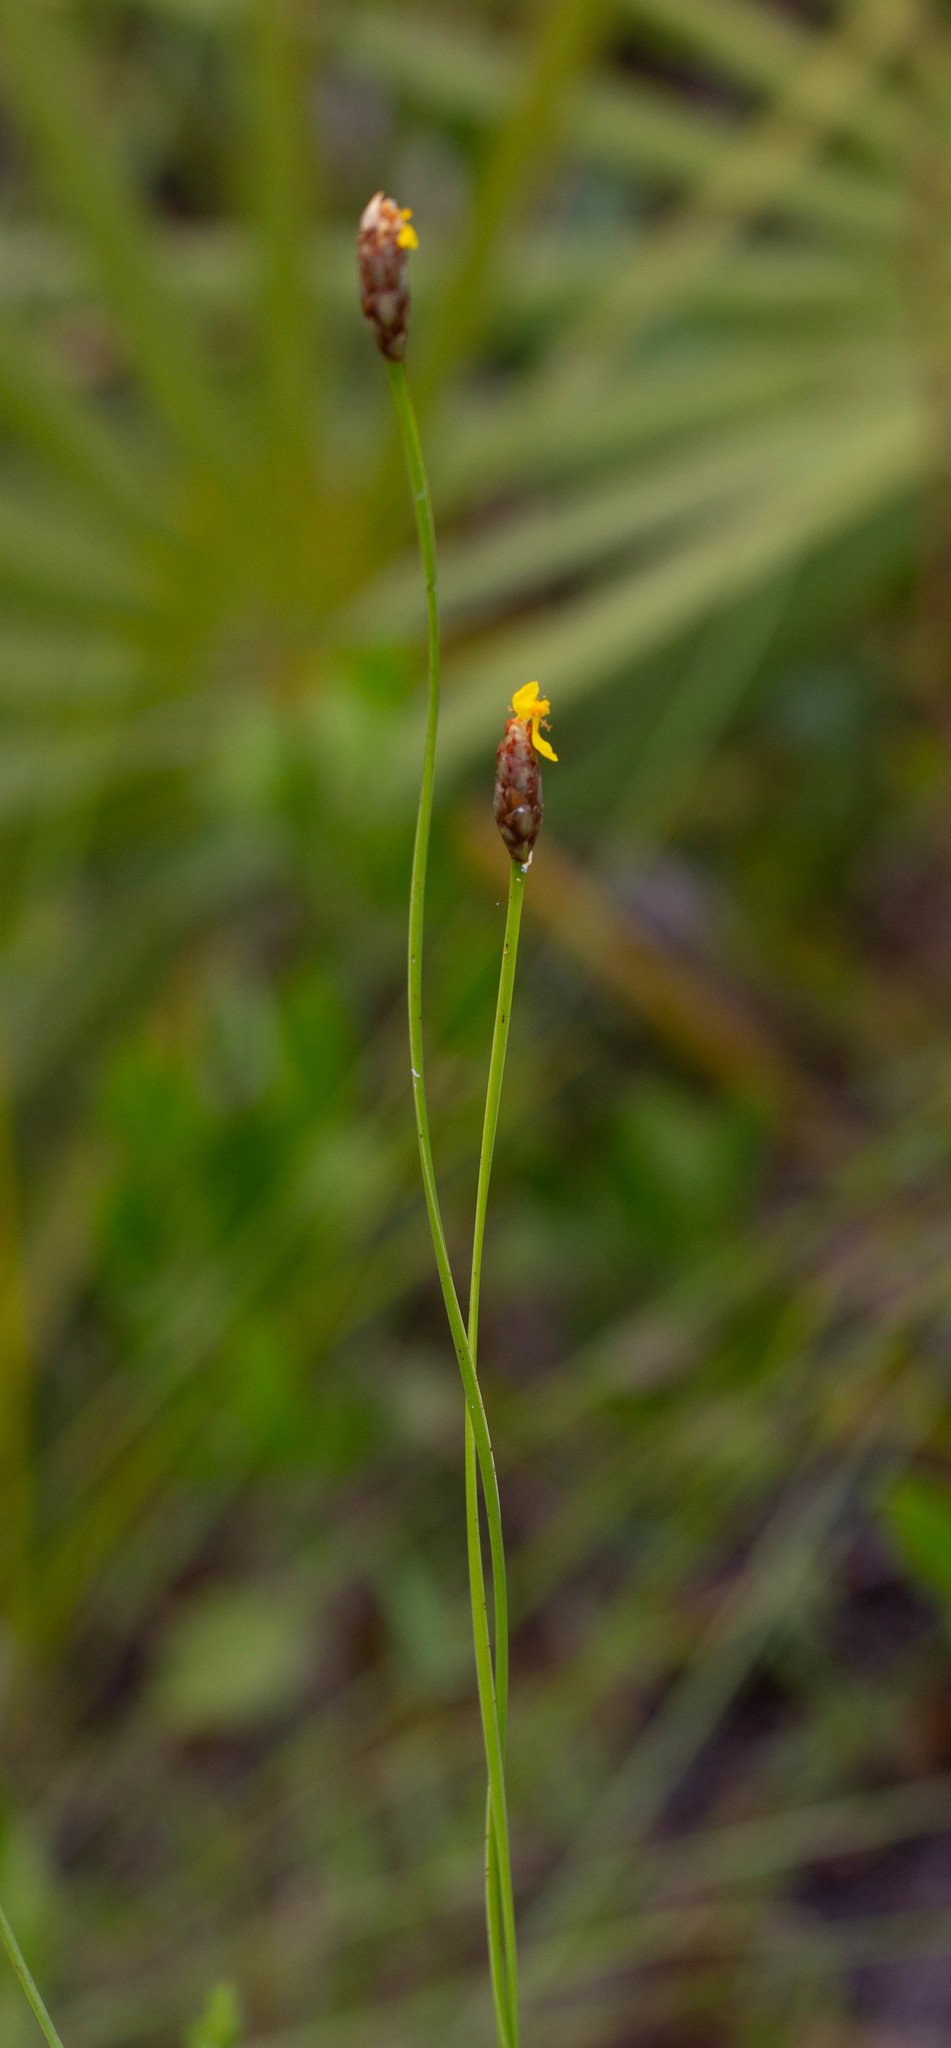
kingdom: Plantae
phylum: Tracheophyta
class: Liliopsida
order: Poales
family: Xyridaceae
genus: Xyris
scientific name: Xyris caroliniana
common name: Carolina yellow-eyed-grass
